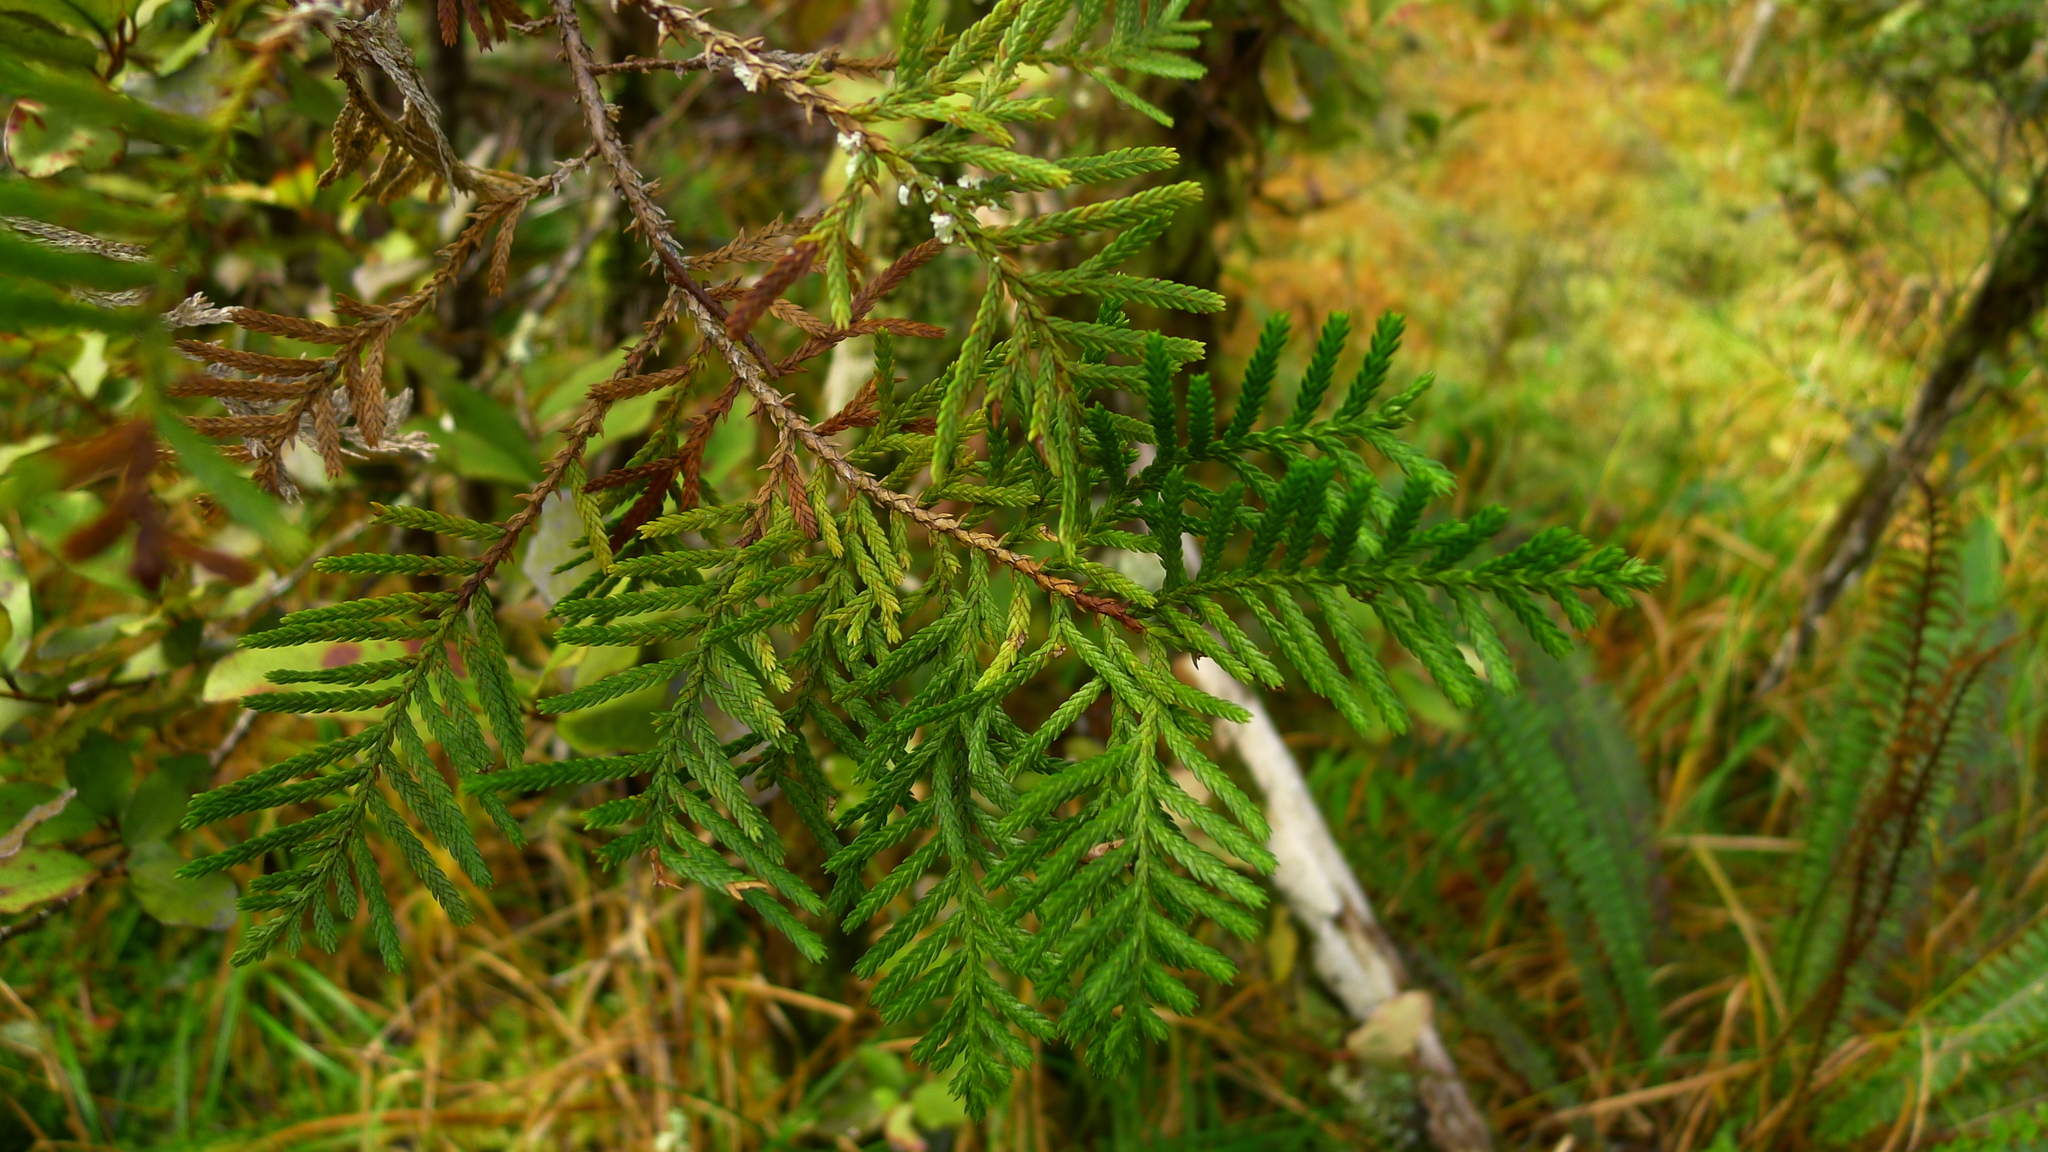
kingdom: Plantae
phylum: Tracheophyta
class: Pinopsida
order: Pinales
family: Cupressaceae
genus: Libocedrus
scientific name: Libocedrus bidwillii
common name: Cedar
